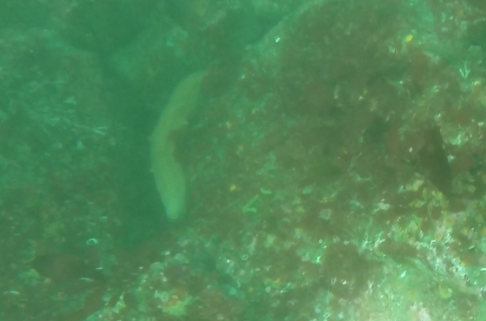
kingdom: Animalia
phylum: Echinodermata
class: Holothuroidea
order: Synallactida
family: Stichopodidae
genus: Apostichopus
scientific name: Apostichopus parvimensis
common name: Warty sea cucumber
